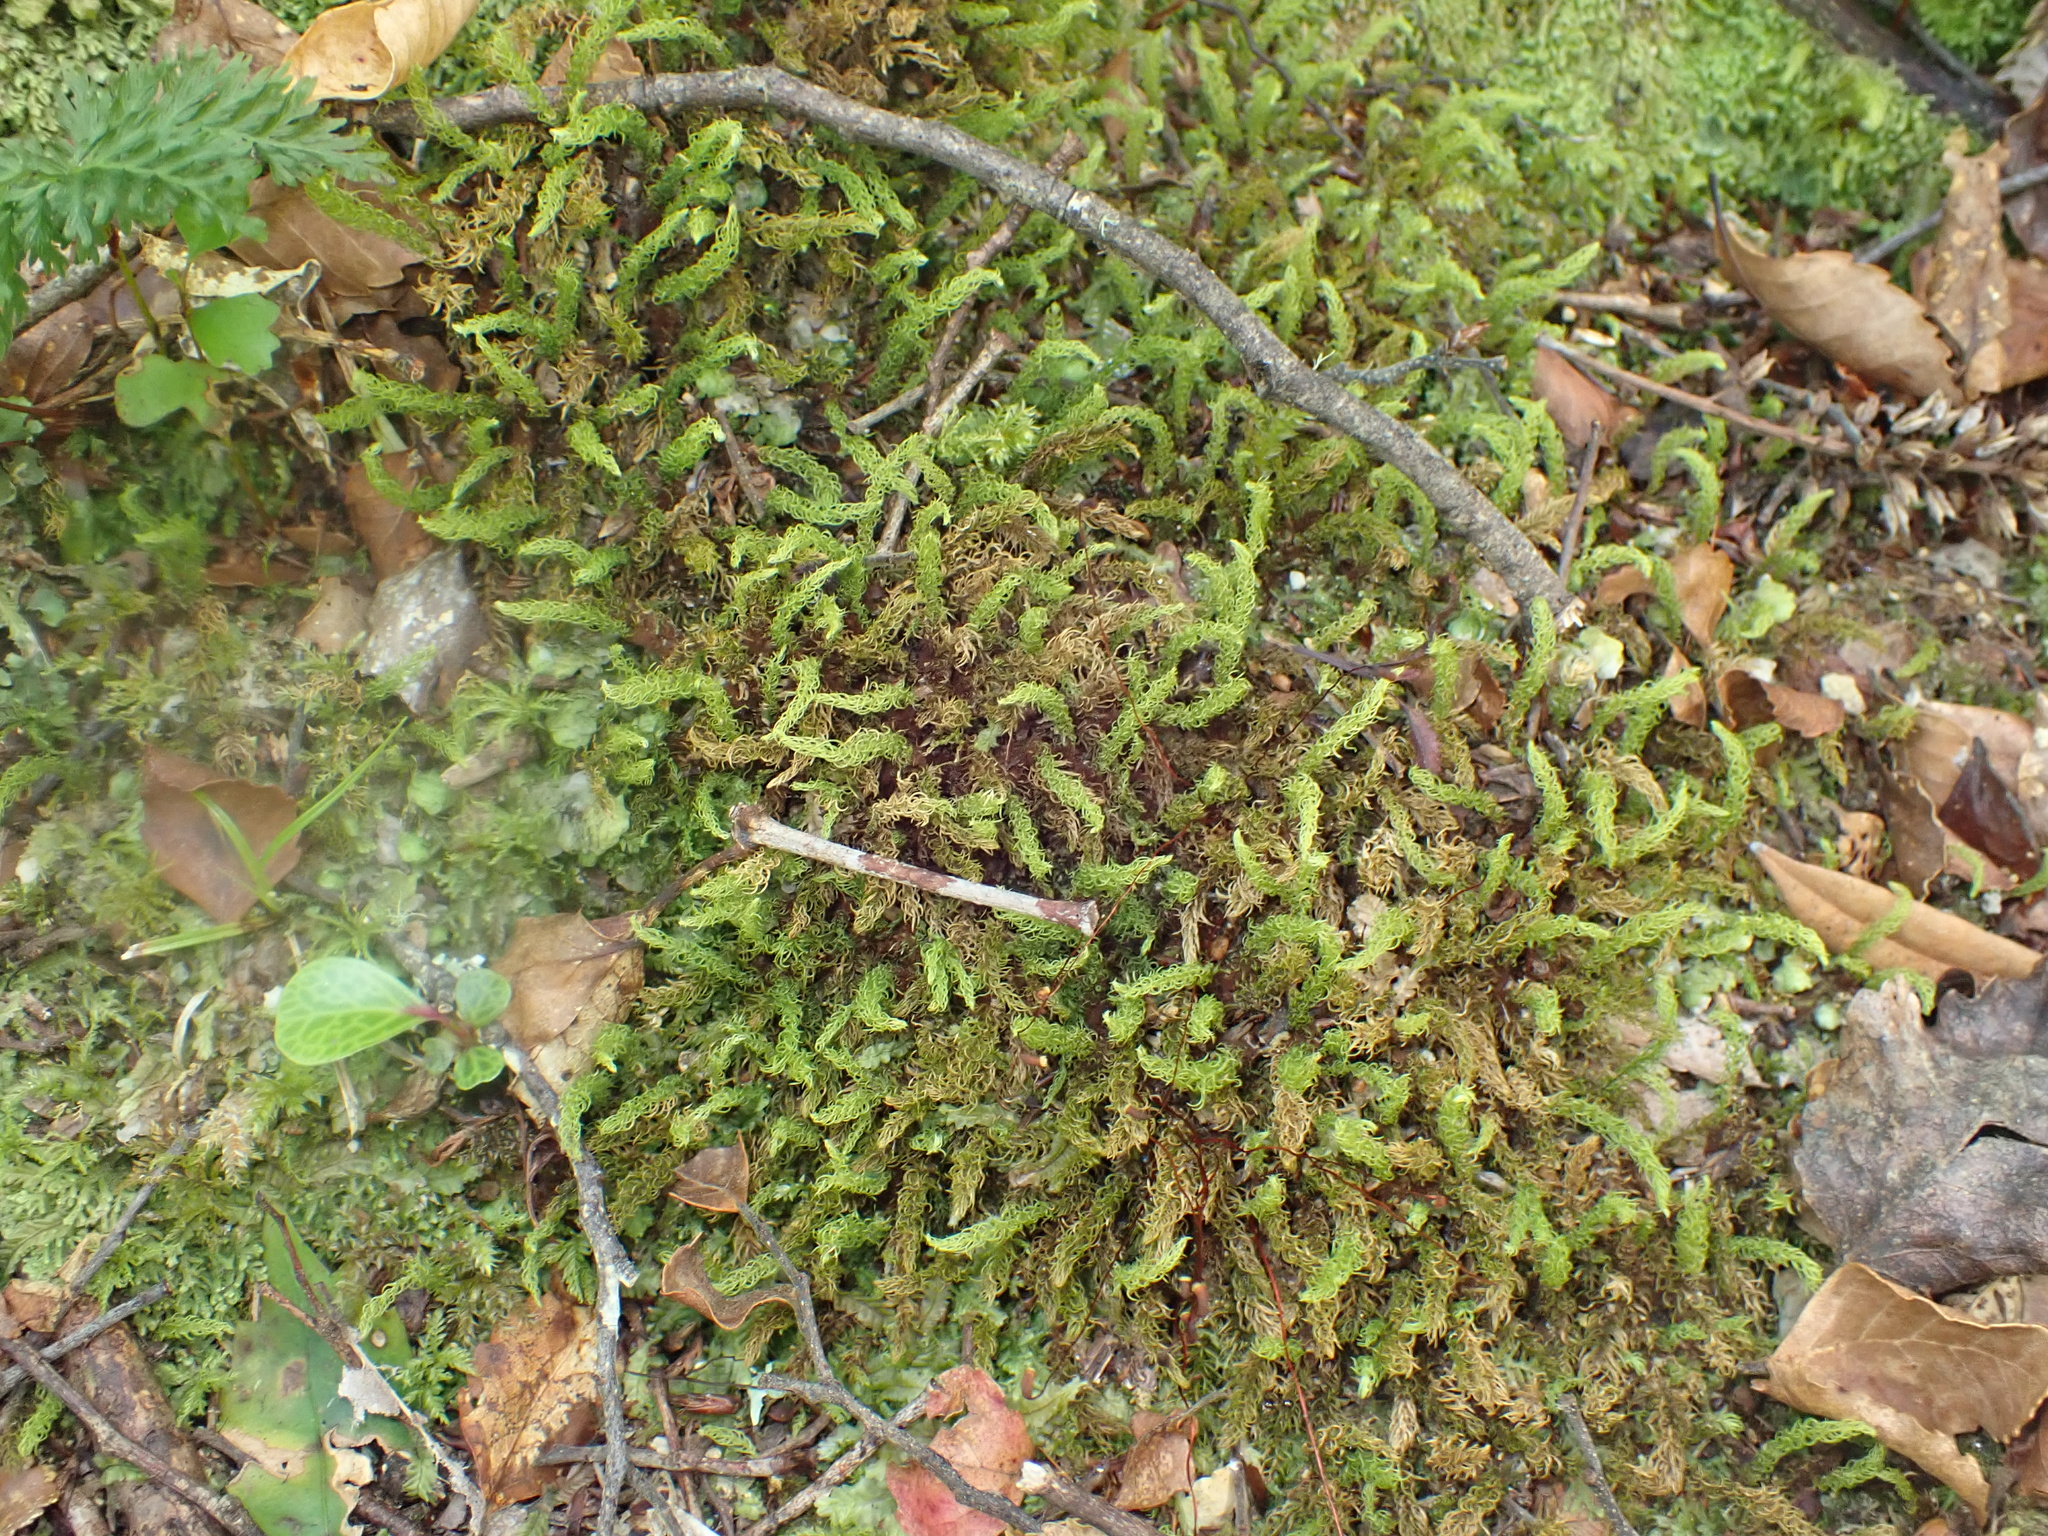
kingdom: Plantae
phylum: Bryophyta
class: Bryopsida
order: Aulacomniales
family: Aulacomniaceae
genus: Hymenodontopsis
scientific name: Hymenodontopsis mnioides
